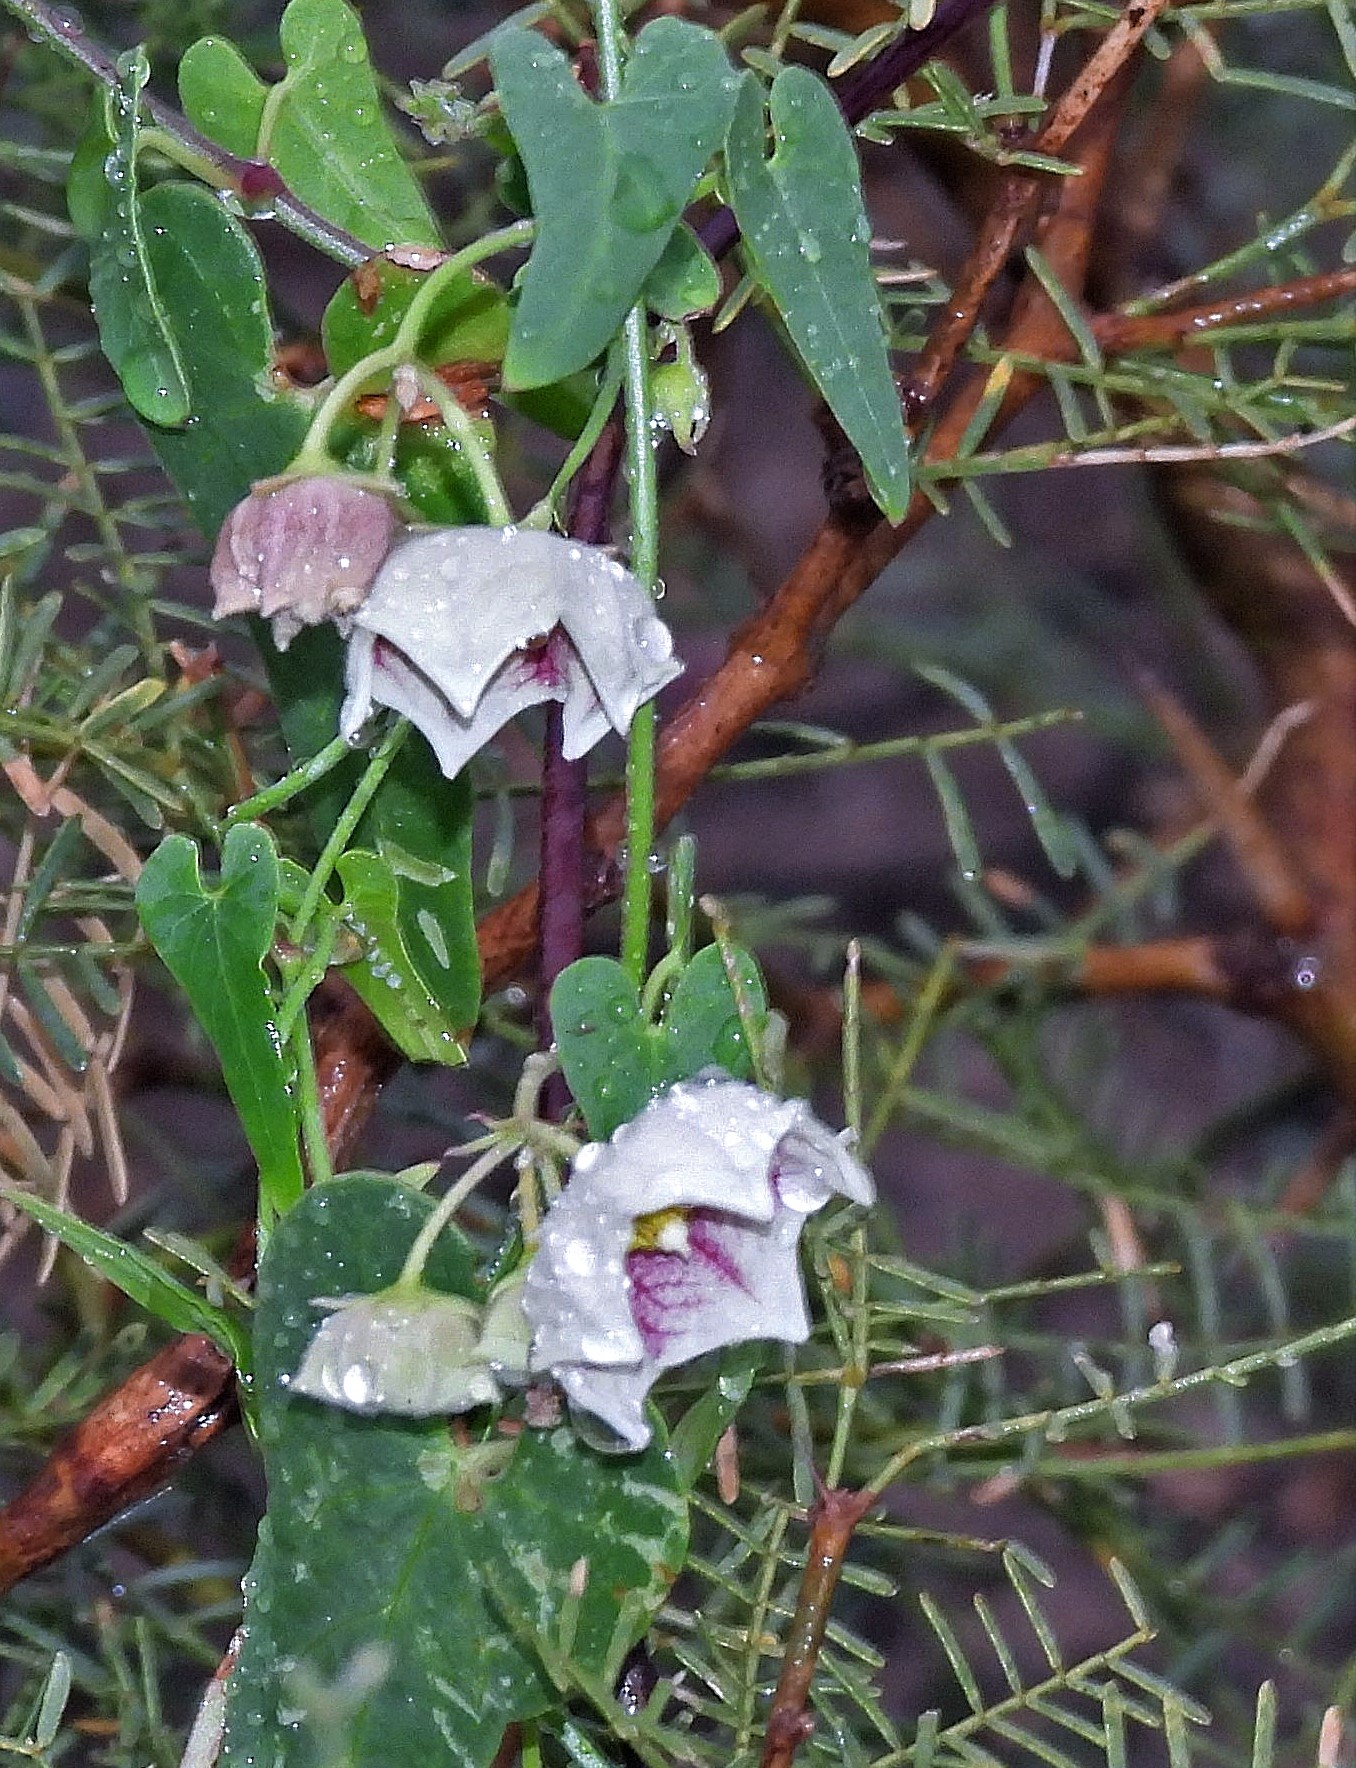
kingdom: Plantae
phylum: Tracheophyta
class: Magnoliopsida
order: Gentianales
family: Apocynaceae
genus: Philibertia
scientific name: Philibertia gilliesii
